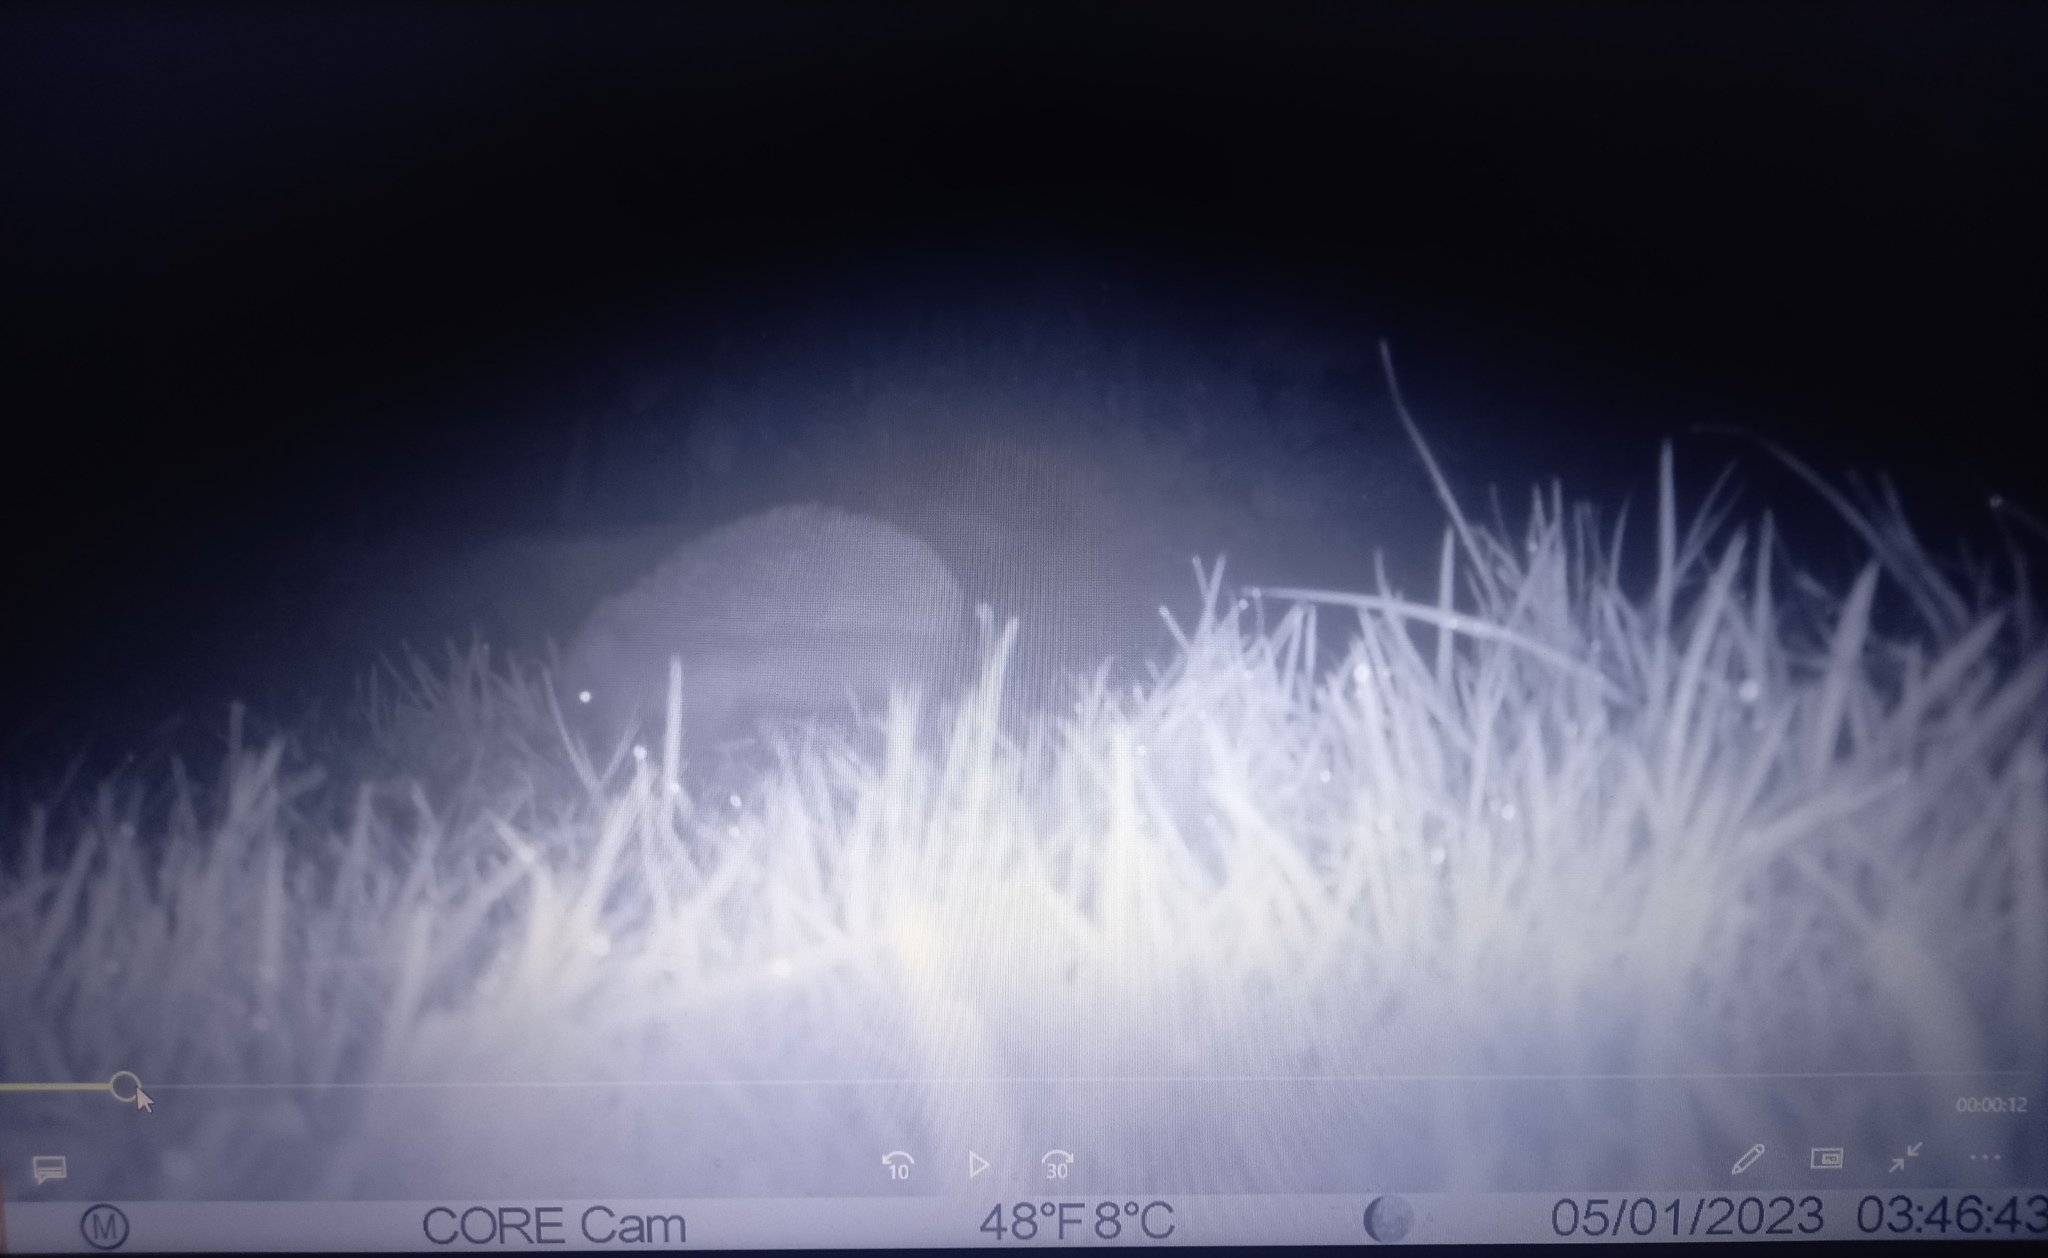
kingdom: Animalia
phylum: Chordata
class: Mammalia
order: Erinaceomorpha
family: Erinaceidae
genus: Erinaceus
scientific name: Erinaceus europaeus
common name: West european hedgehog
